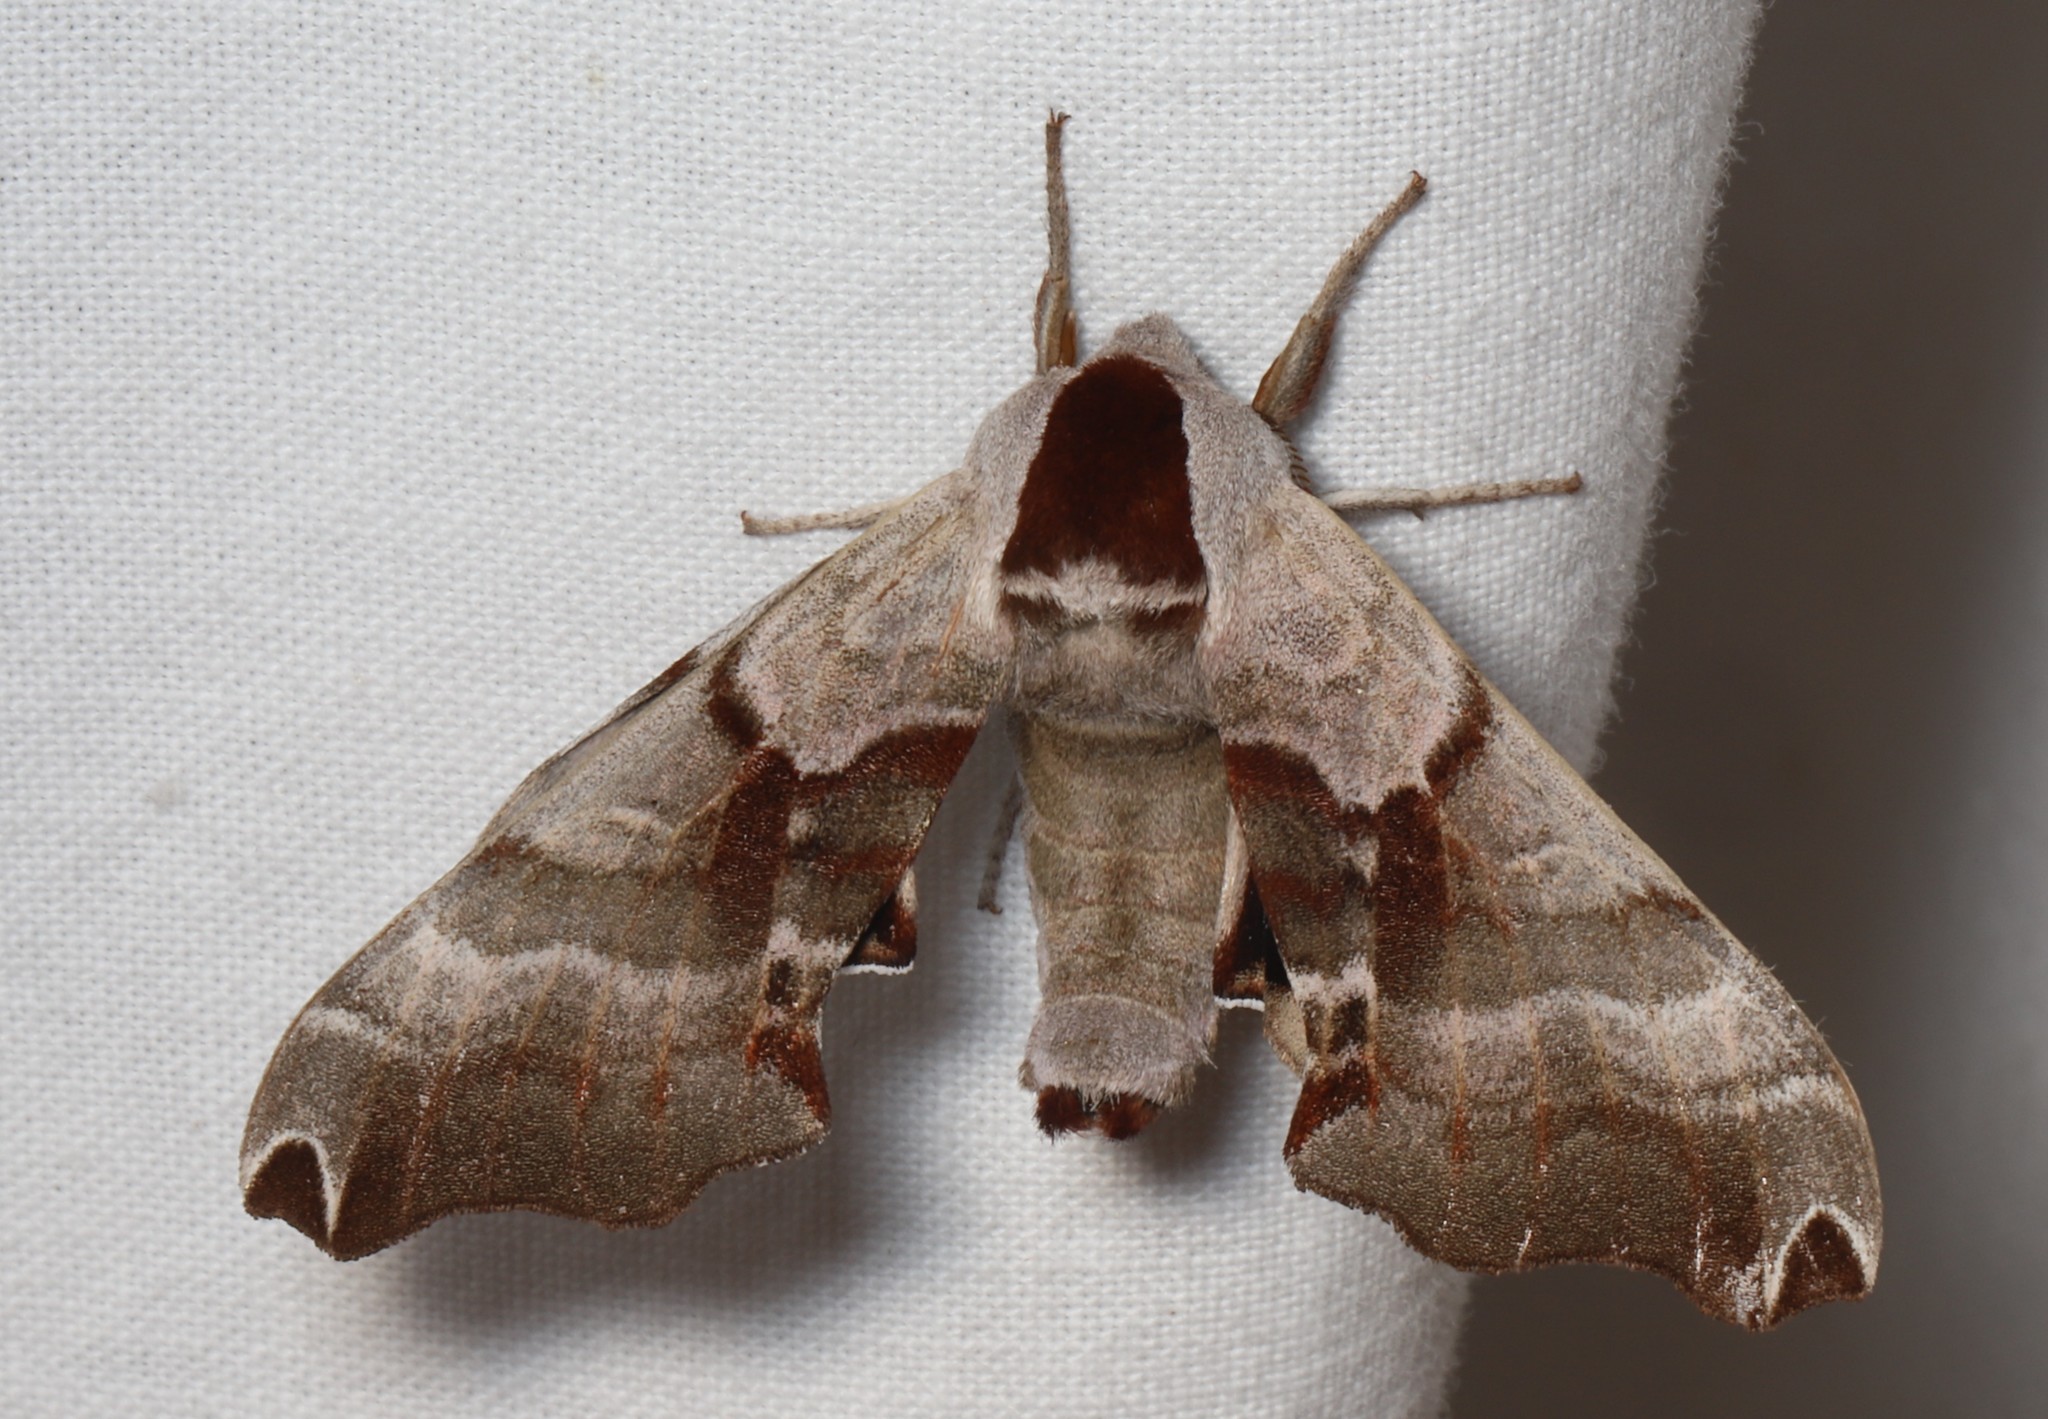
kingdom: Animalia
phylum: Arthropoda
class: Insecta
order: Lepidoptera
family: Sphingidae
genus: Smerinthus
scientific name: Smerinthus jamaicensis
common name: Twin spotted sphinx
